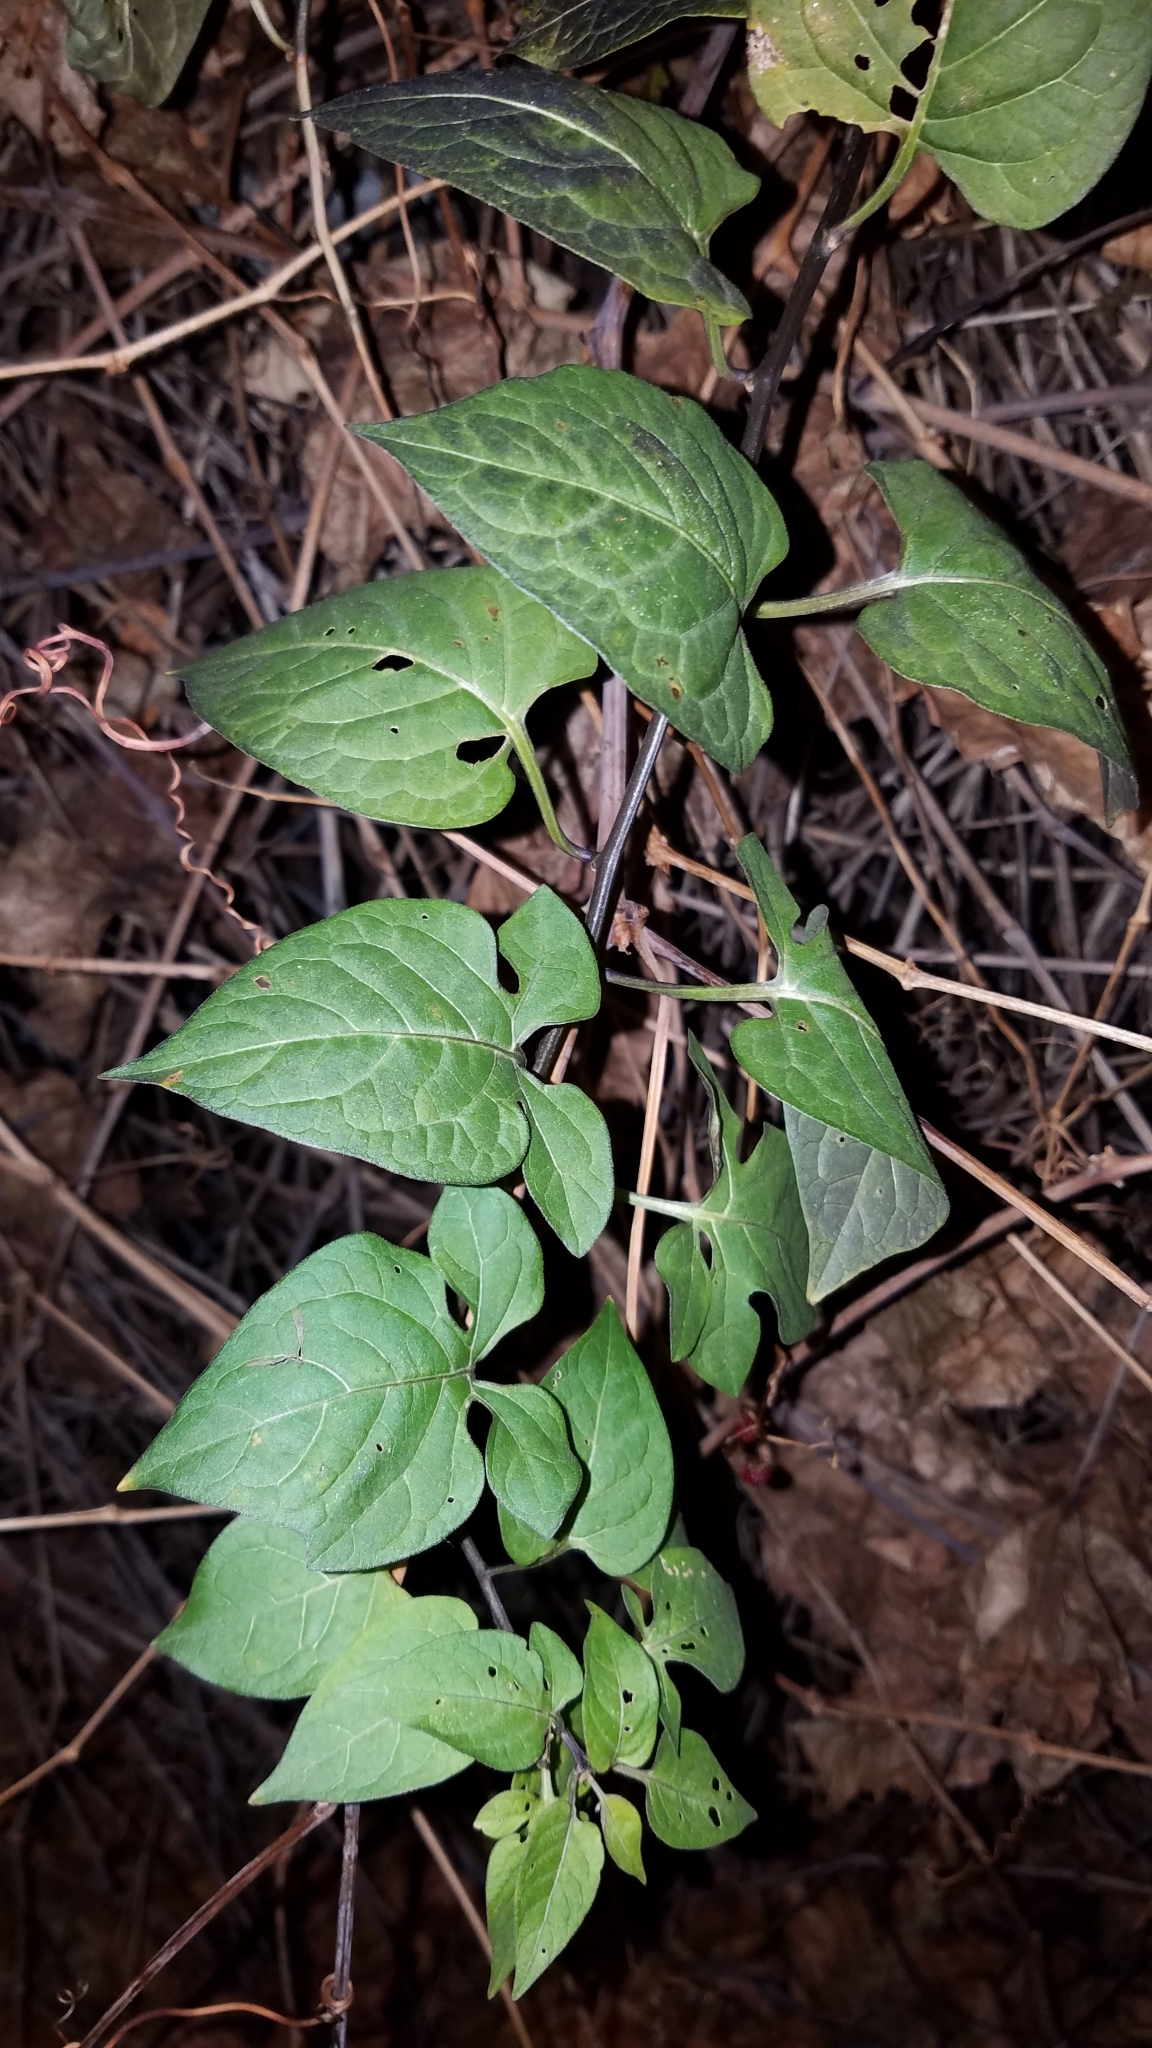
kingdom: Plantae
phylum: Tracheophyta
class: Magnoliopsida
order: Solanales
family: Solanaceae
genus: Solanum
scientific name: Solanum dulcamara
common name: Climbing nightshade
